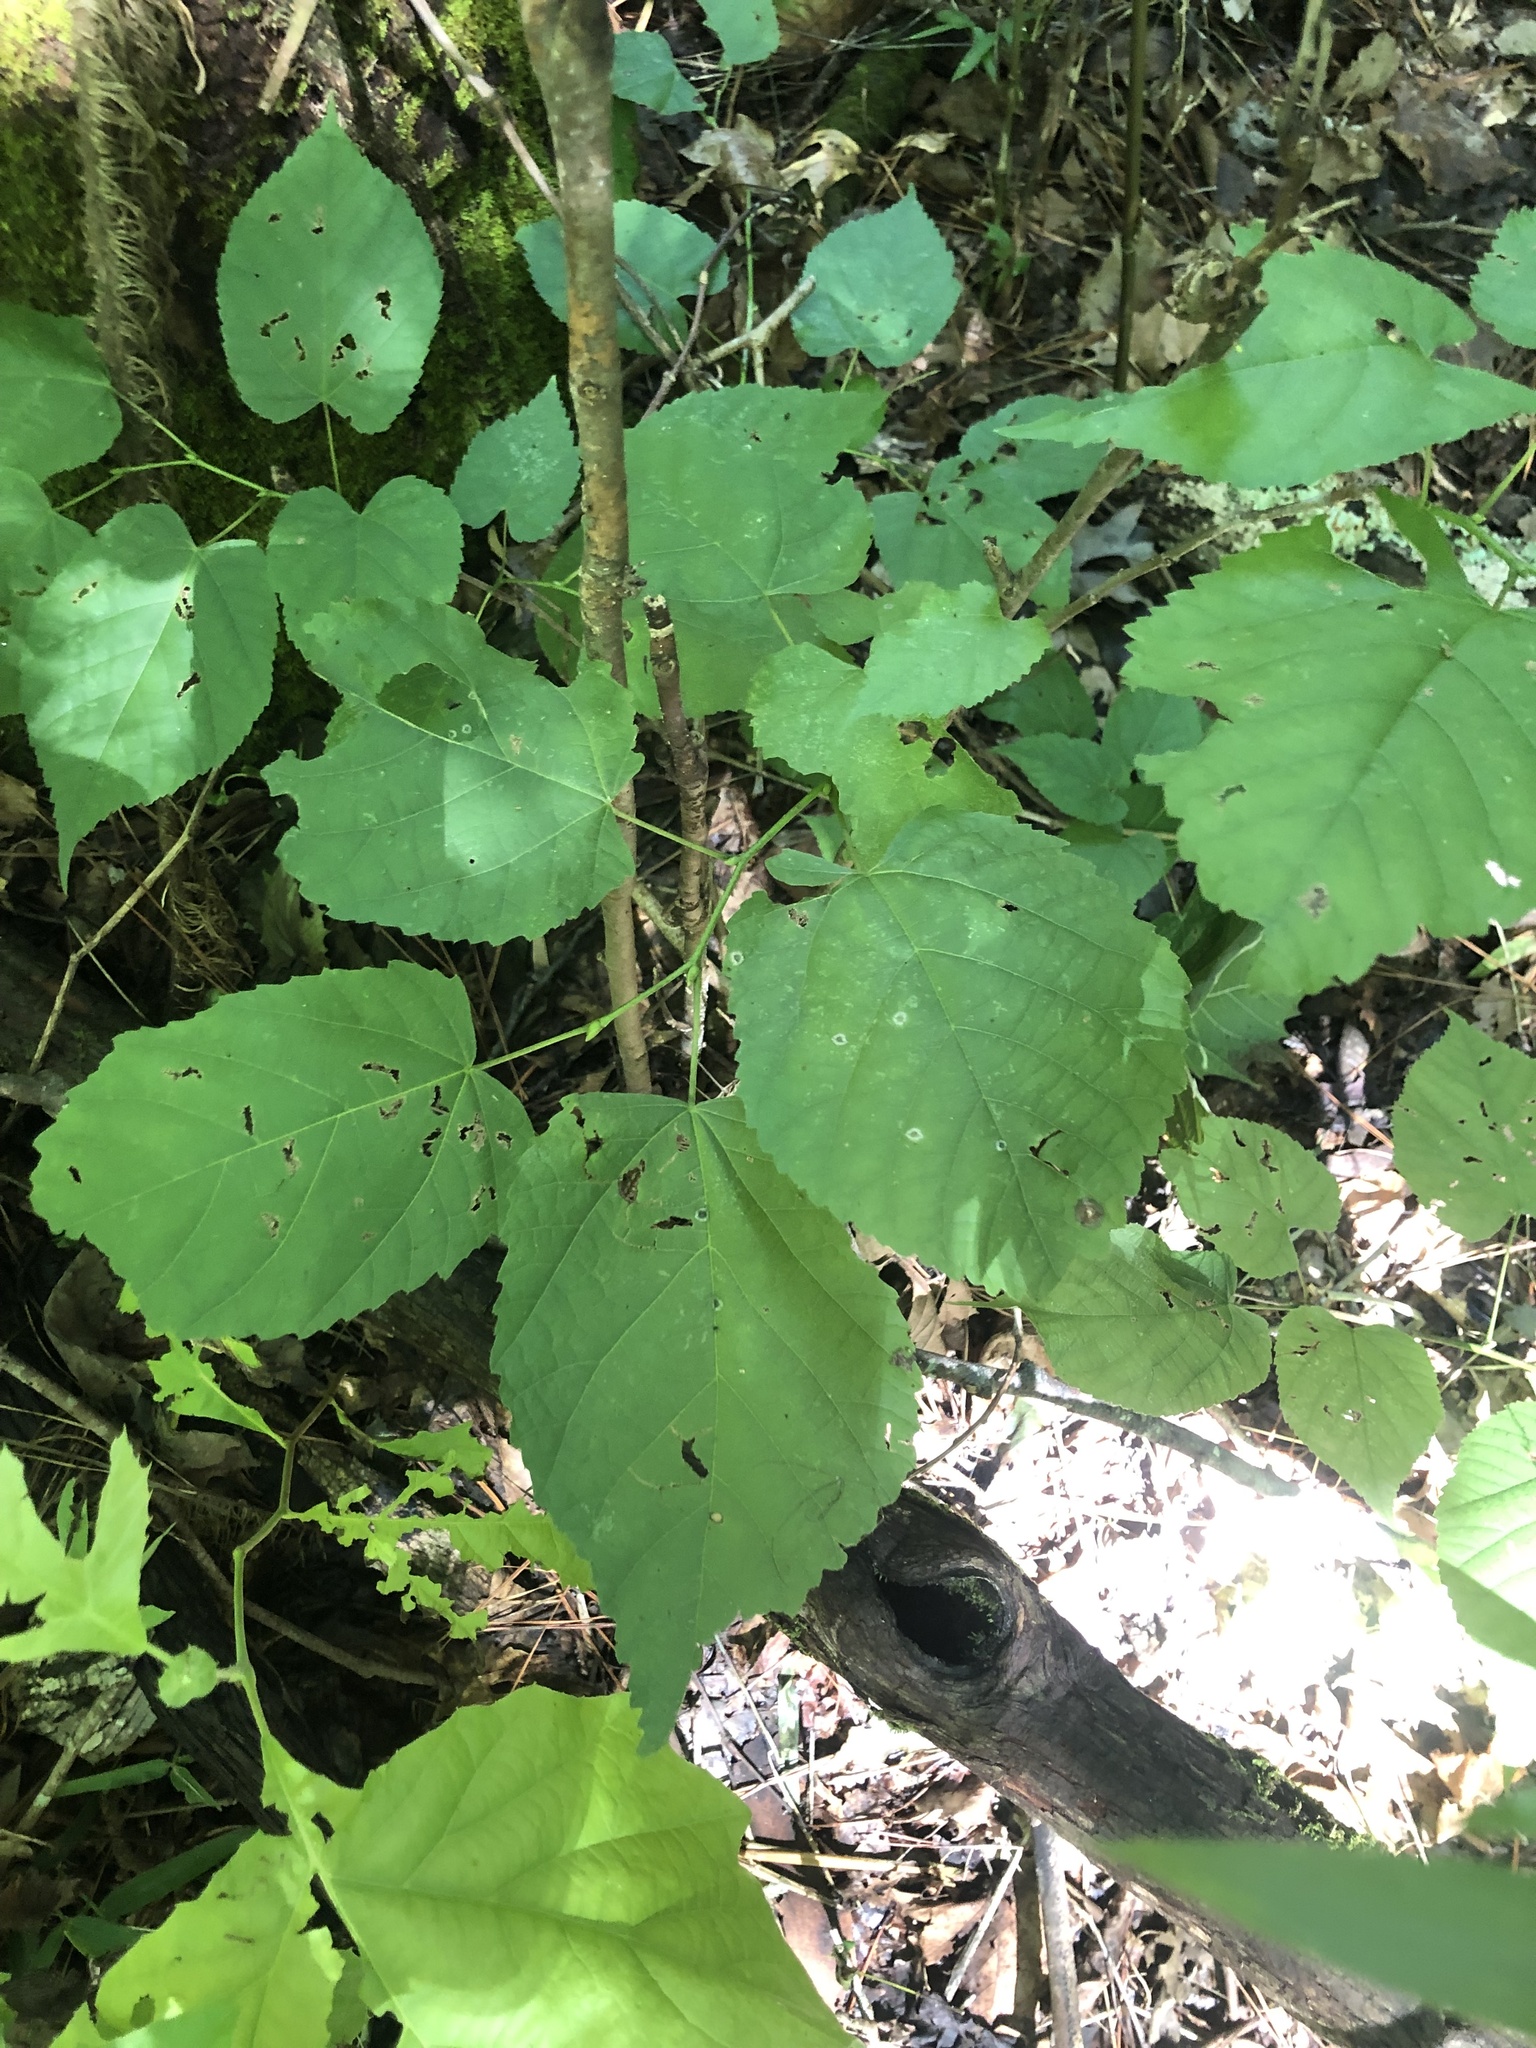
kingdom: Plantae
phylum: Tracheophyta
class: Magnoliopsida
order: Malvales
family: Malvaceae
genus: Tilia
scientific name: Tilia americana
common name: Basswood
